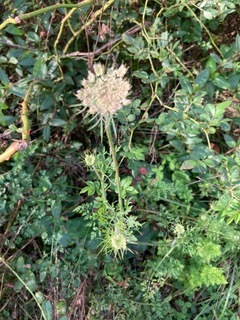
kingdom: Plantae
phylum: Tracheophyta
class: Magnoliopsida
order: Apiales
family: Apiaceae
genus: Daucus
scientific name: Daucus carota
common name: Wild carrot
